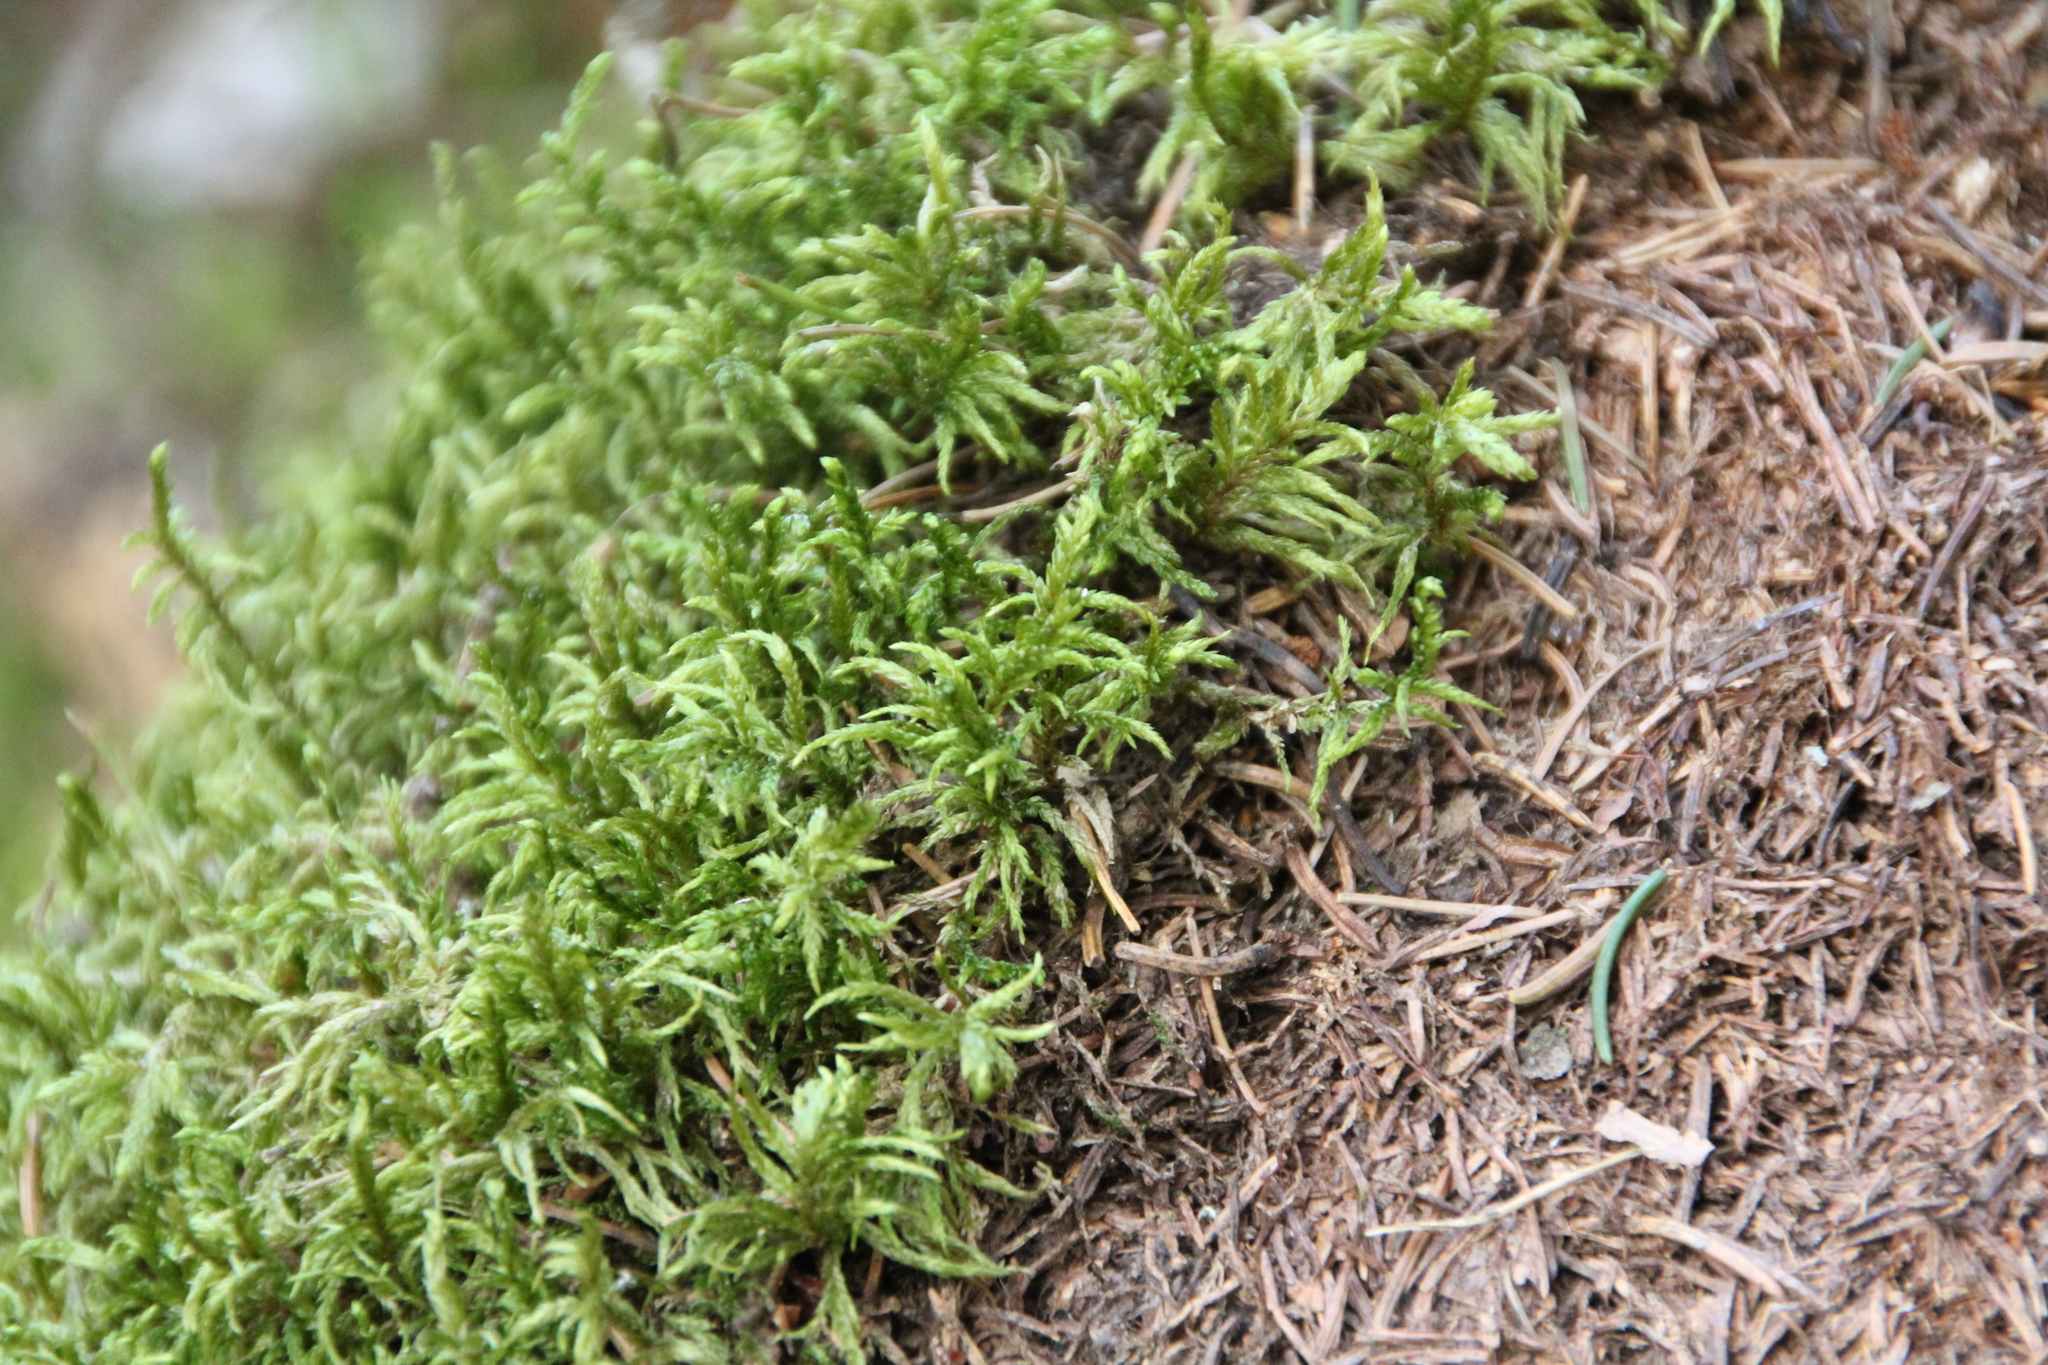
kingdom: Plantae
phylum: Bryophyta
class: Bryopsida
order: Hypnales
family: Hylocomiaceae
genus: Pleurozium
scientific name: Pleurozium schreberi
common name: Red-stemmed feather moss
